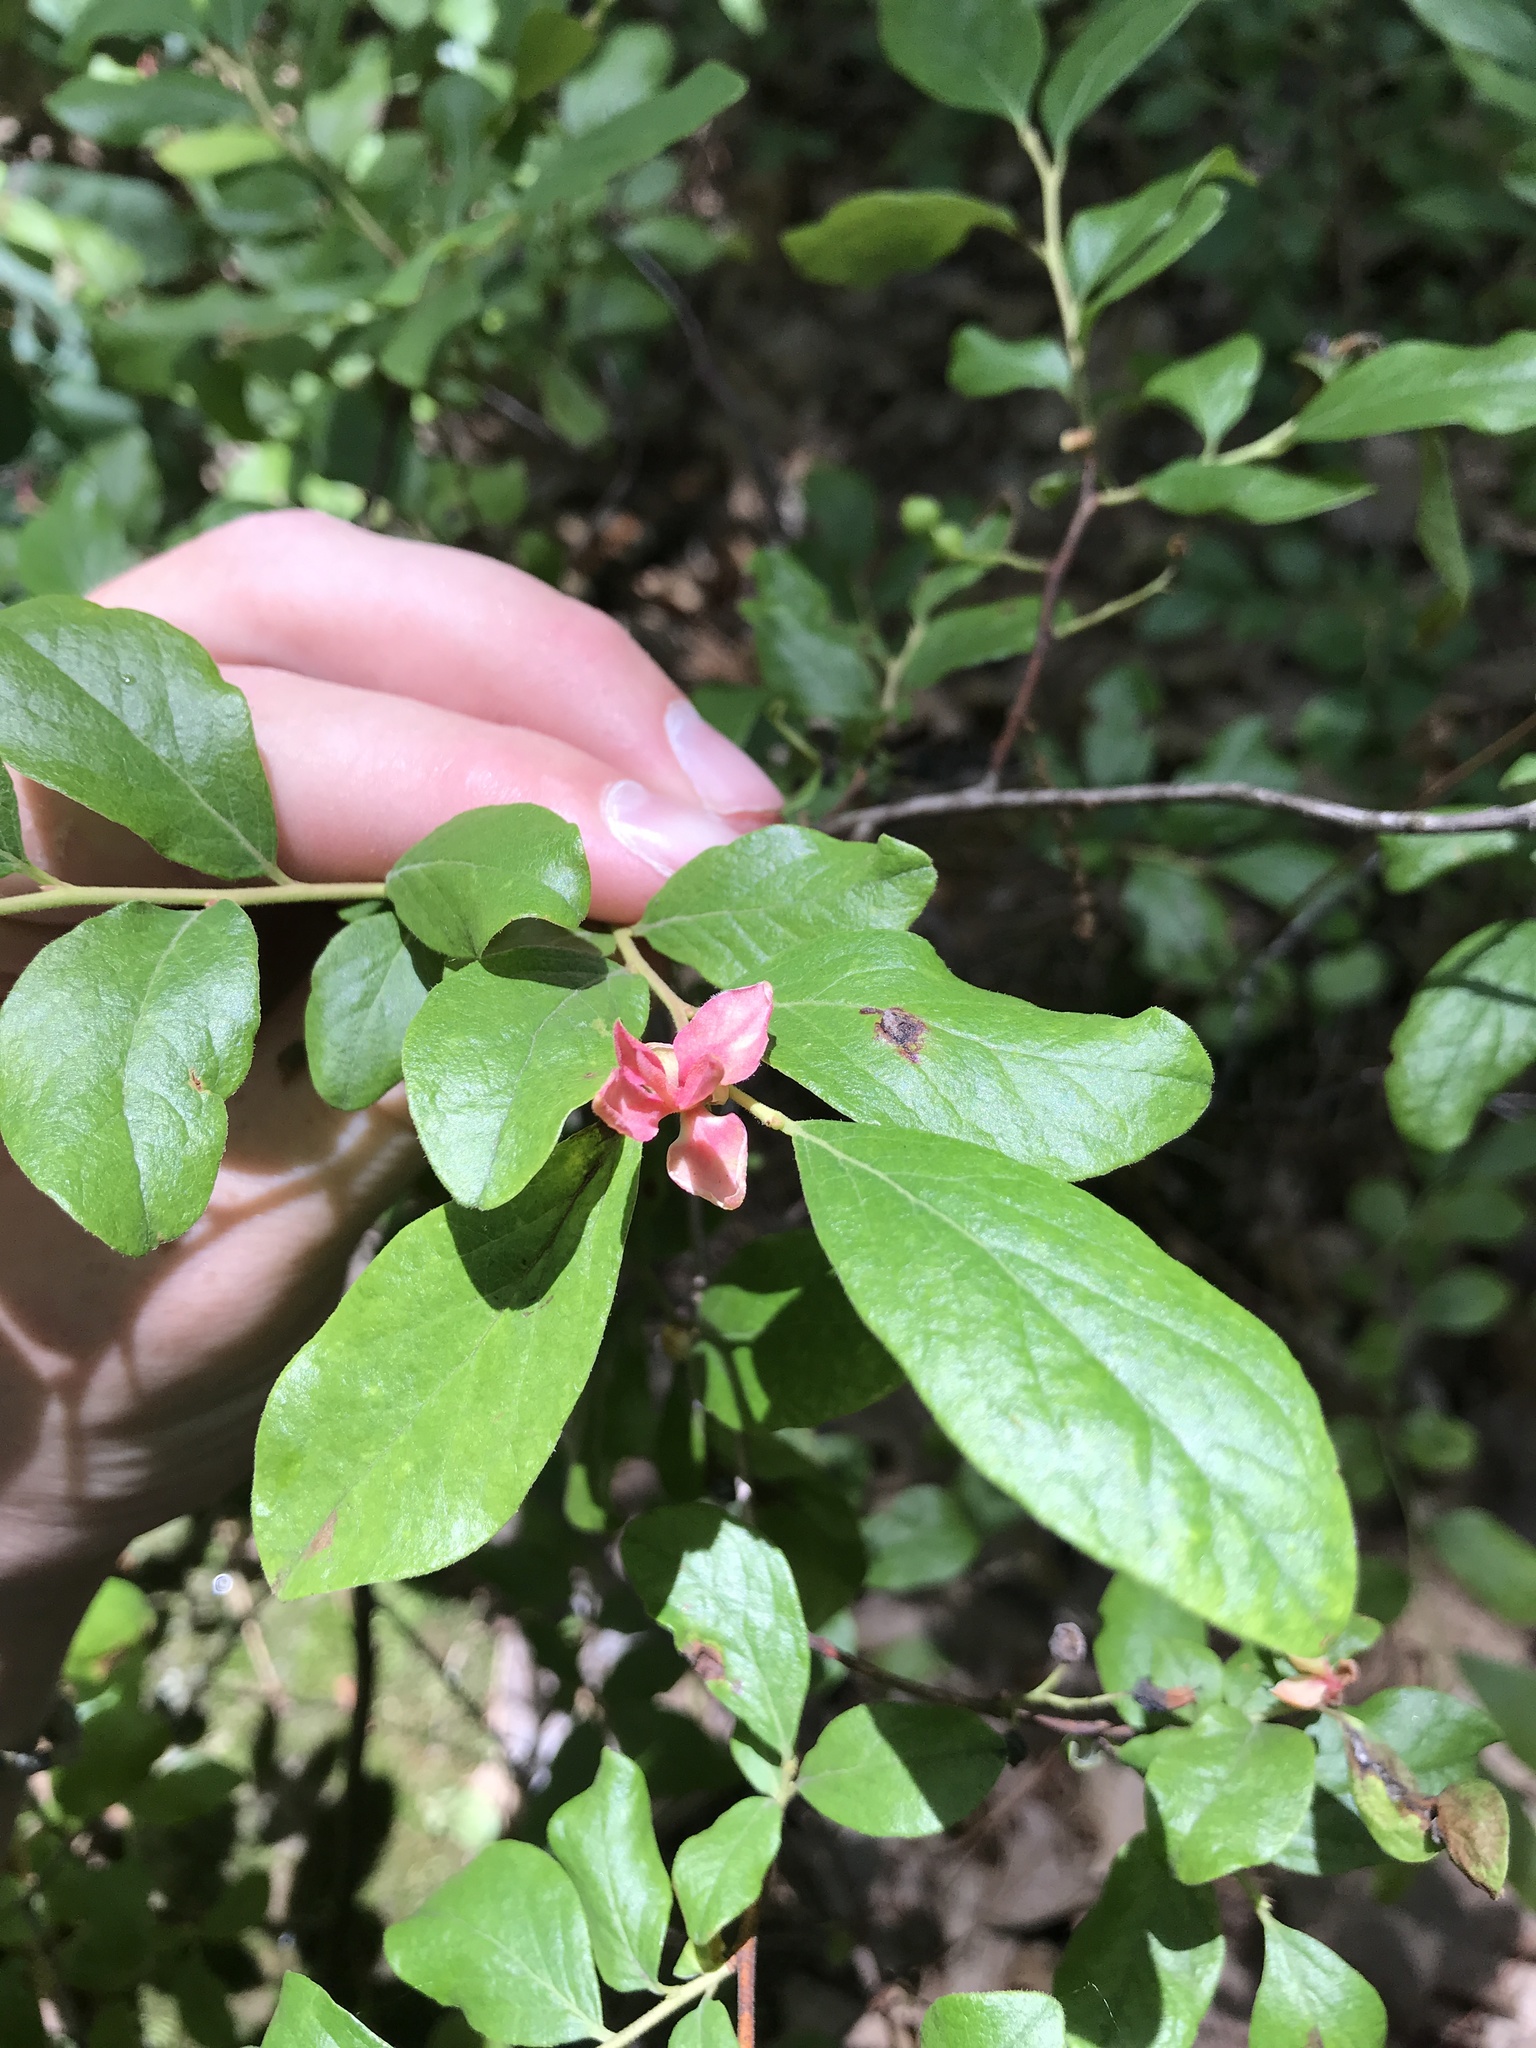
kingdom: Plantae
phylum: Tracheophyta
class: Magnoliopsida
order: Ericales
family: Ericaceae
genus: Gaylussacia
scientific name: Gaylussacia baccata
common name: Black huckleberry
